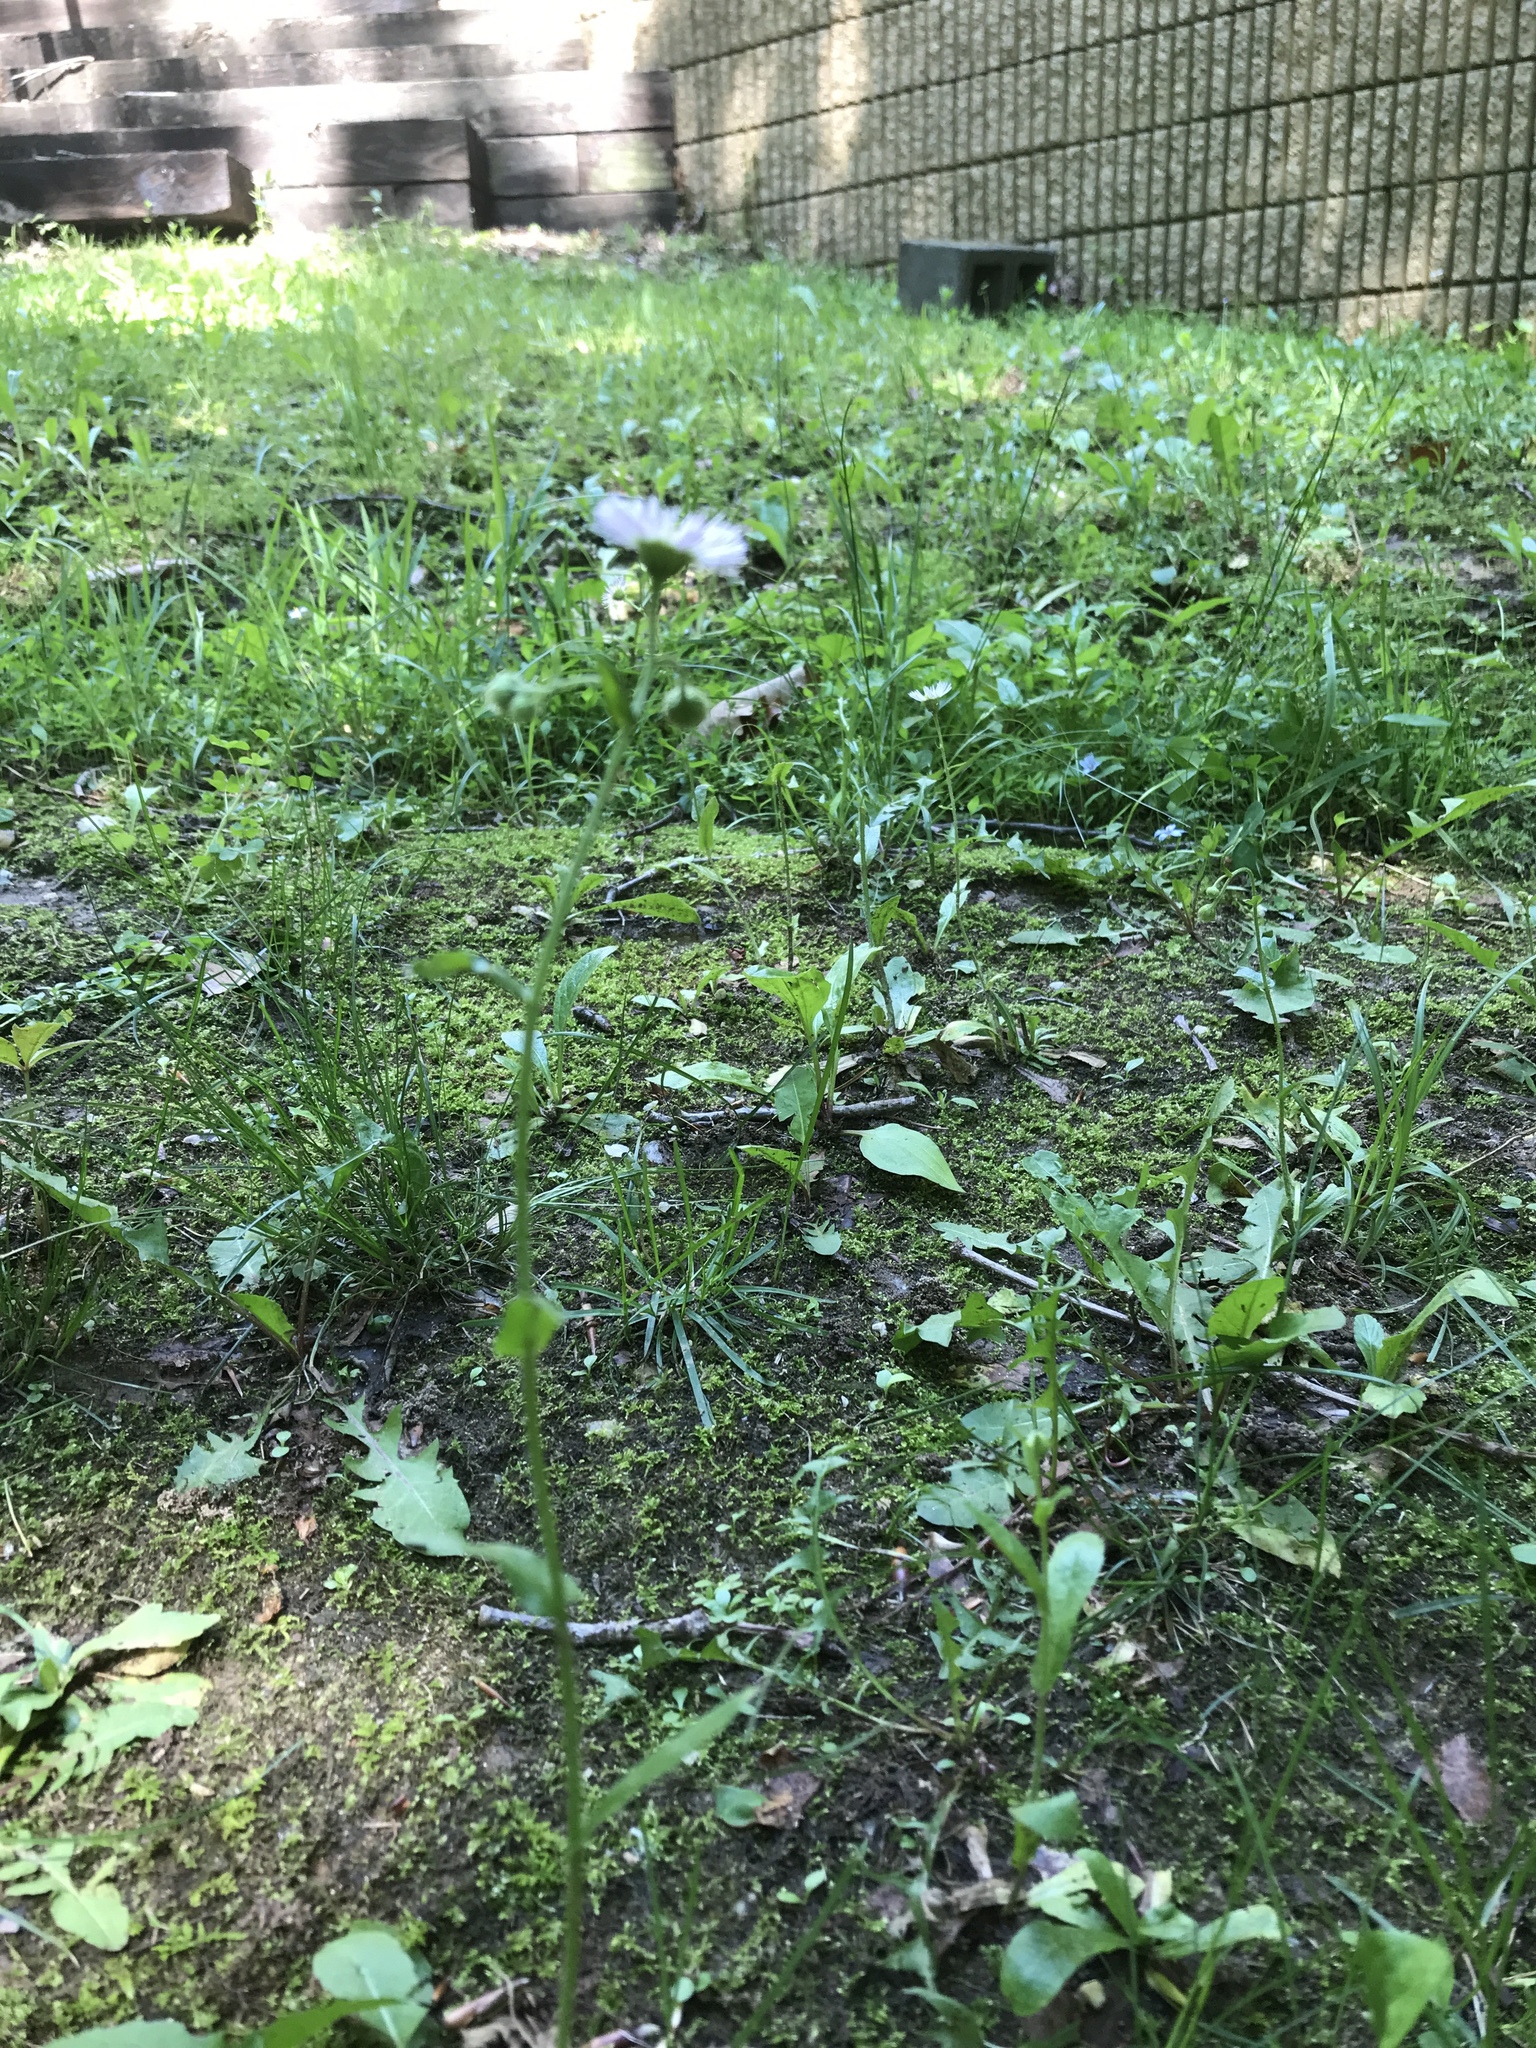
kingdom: Plantae
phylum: Tracheophyta
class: Magnoliopsida
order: Asterales
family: Asteraceae
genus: Erigeron
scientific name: Erigeron philadelphicus
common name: Robin's-plantain
